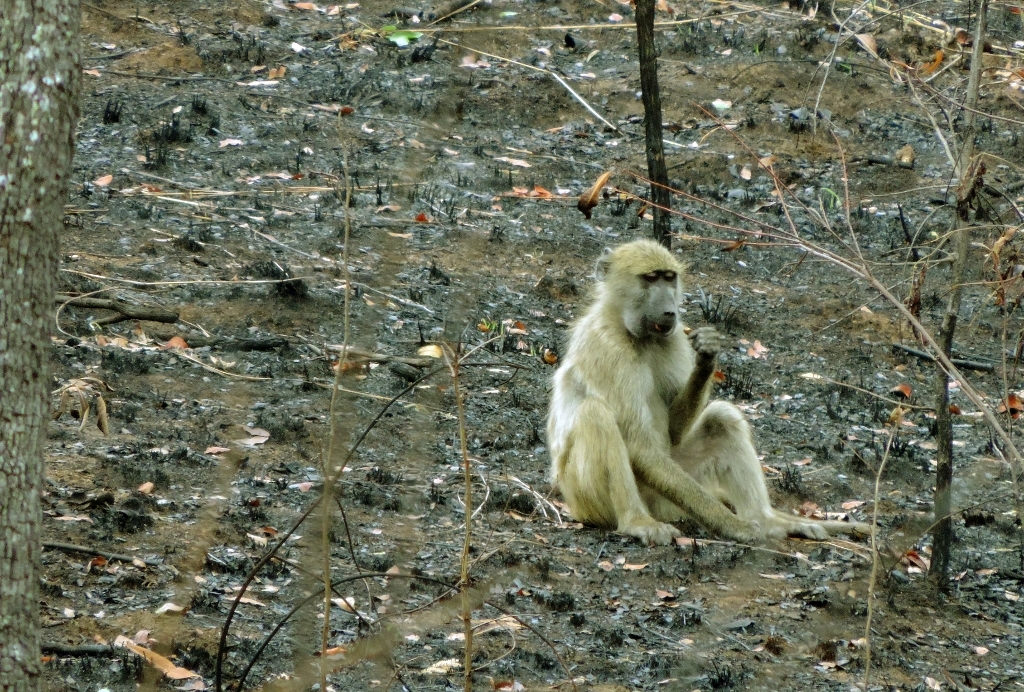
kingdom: Animalia
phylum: Chordata
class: Mammalia
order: Primates
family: Cercopithecidae
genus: Papio
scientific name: Papio ursinus
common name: Chacma baboon
